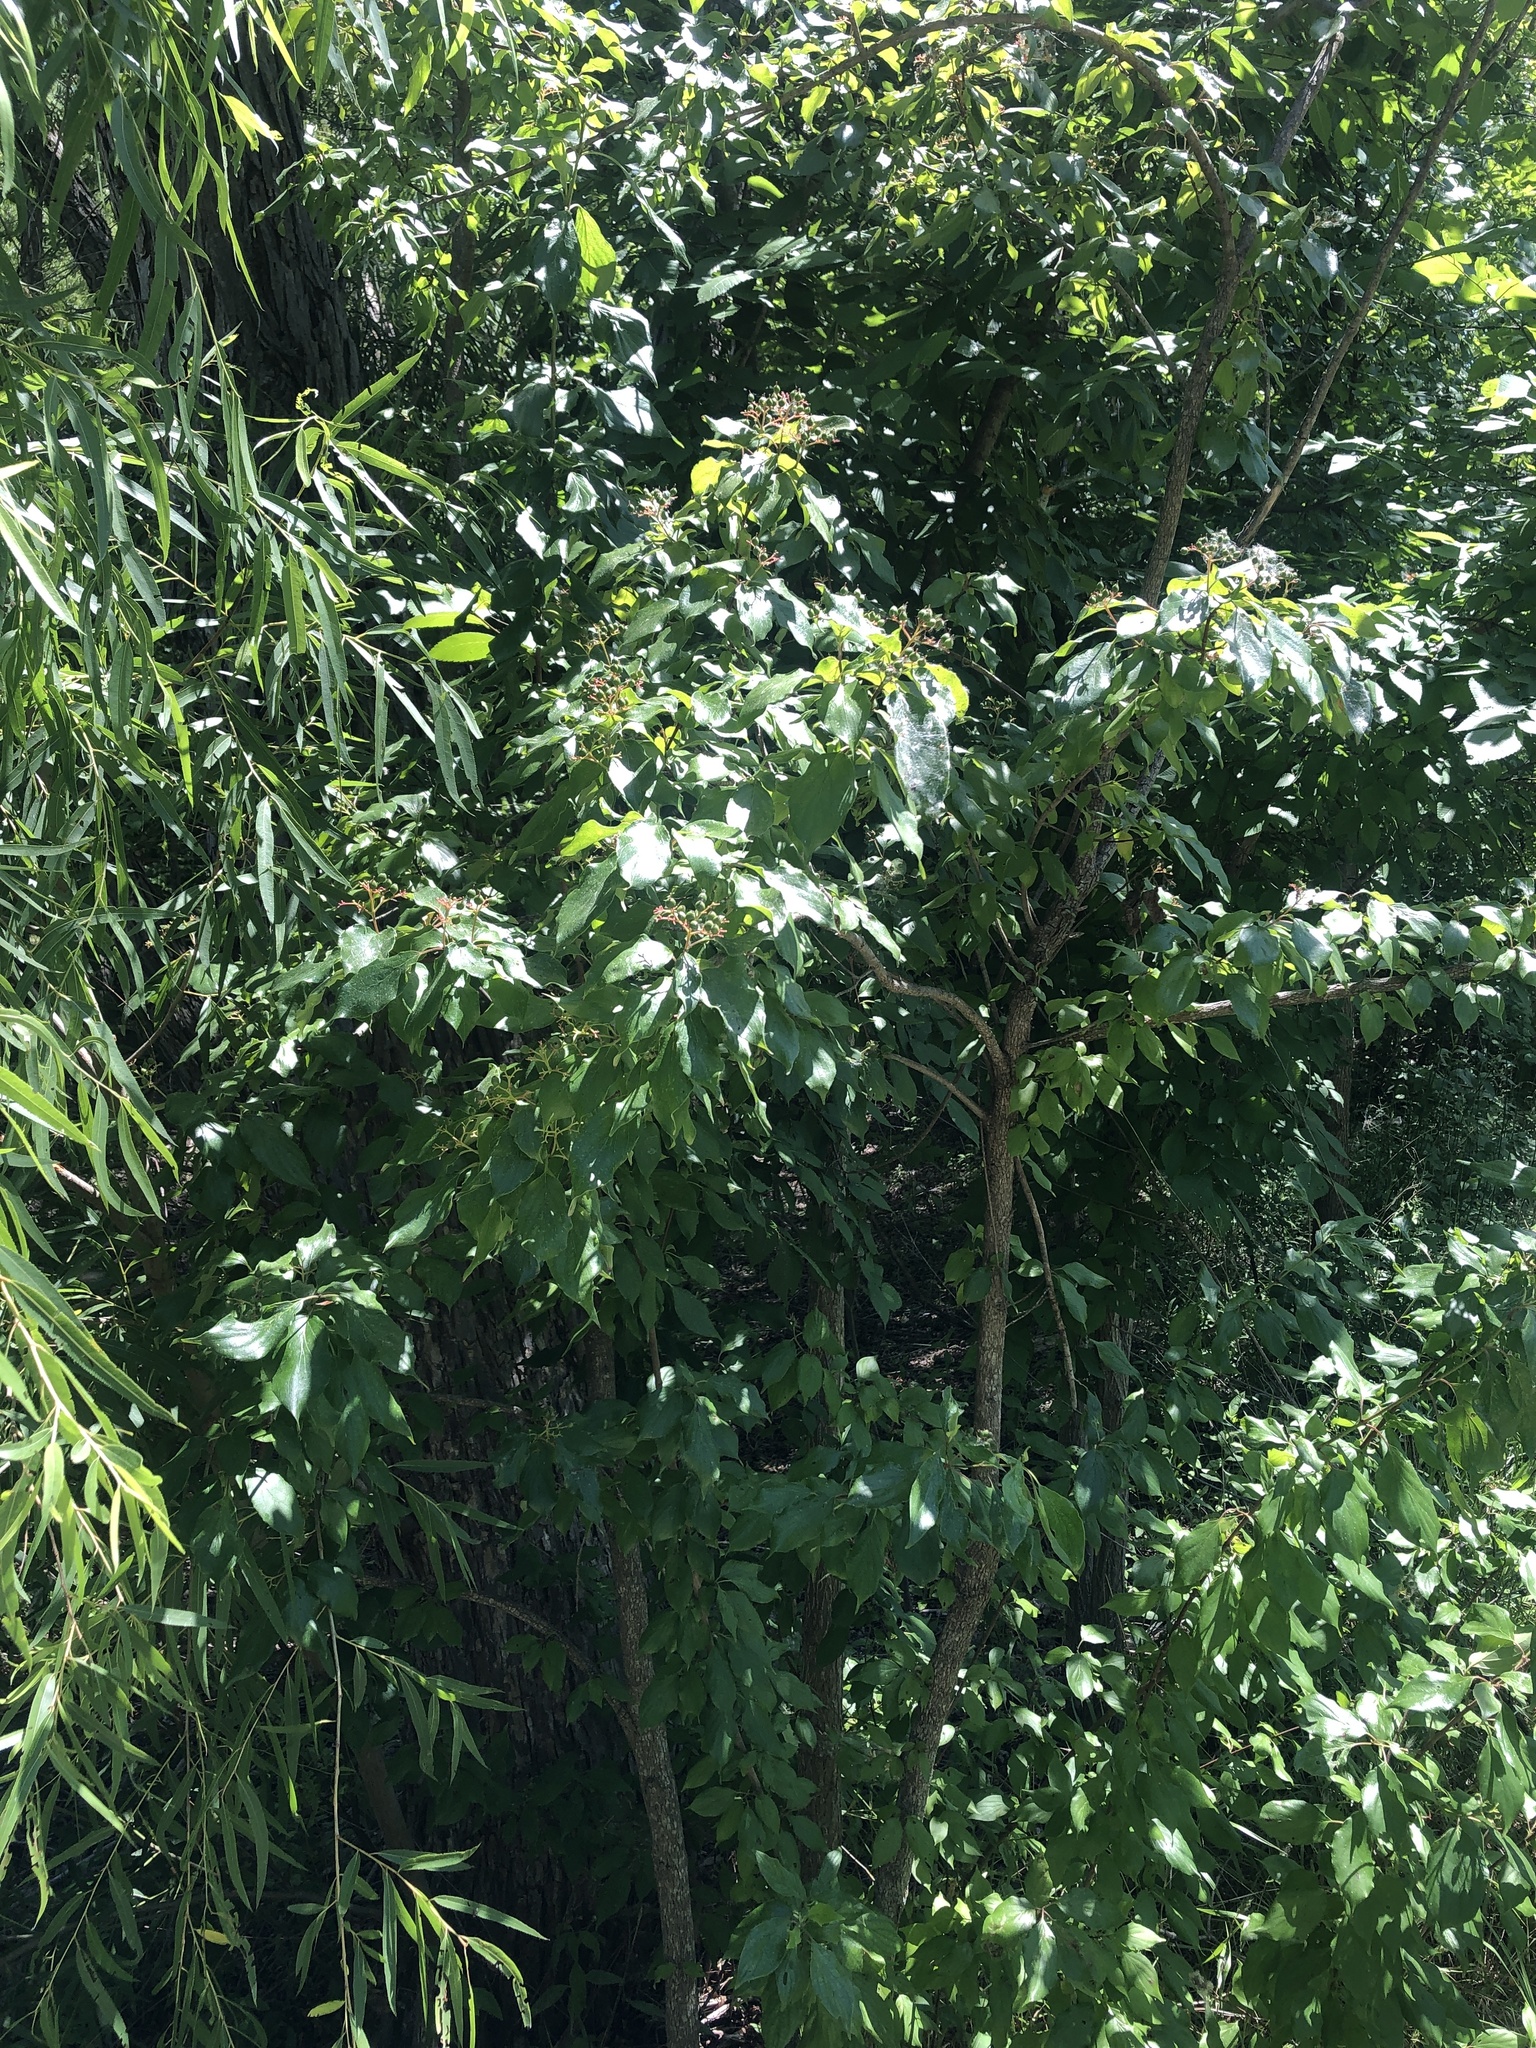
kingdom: Plantae
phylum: Tracheophyta
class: Magnoliopsida
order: Cornales
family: Cornaceae
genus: Cornus
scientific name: Cornus drummondii
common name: Rough-leaf dogwood
